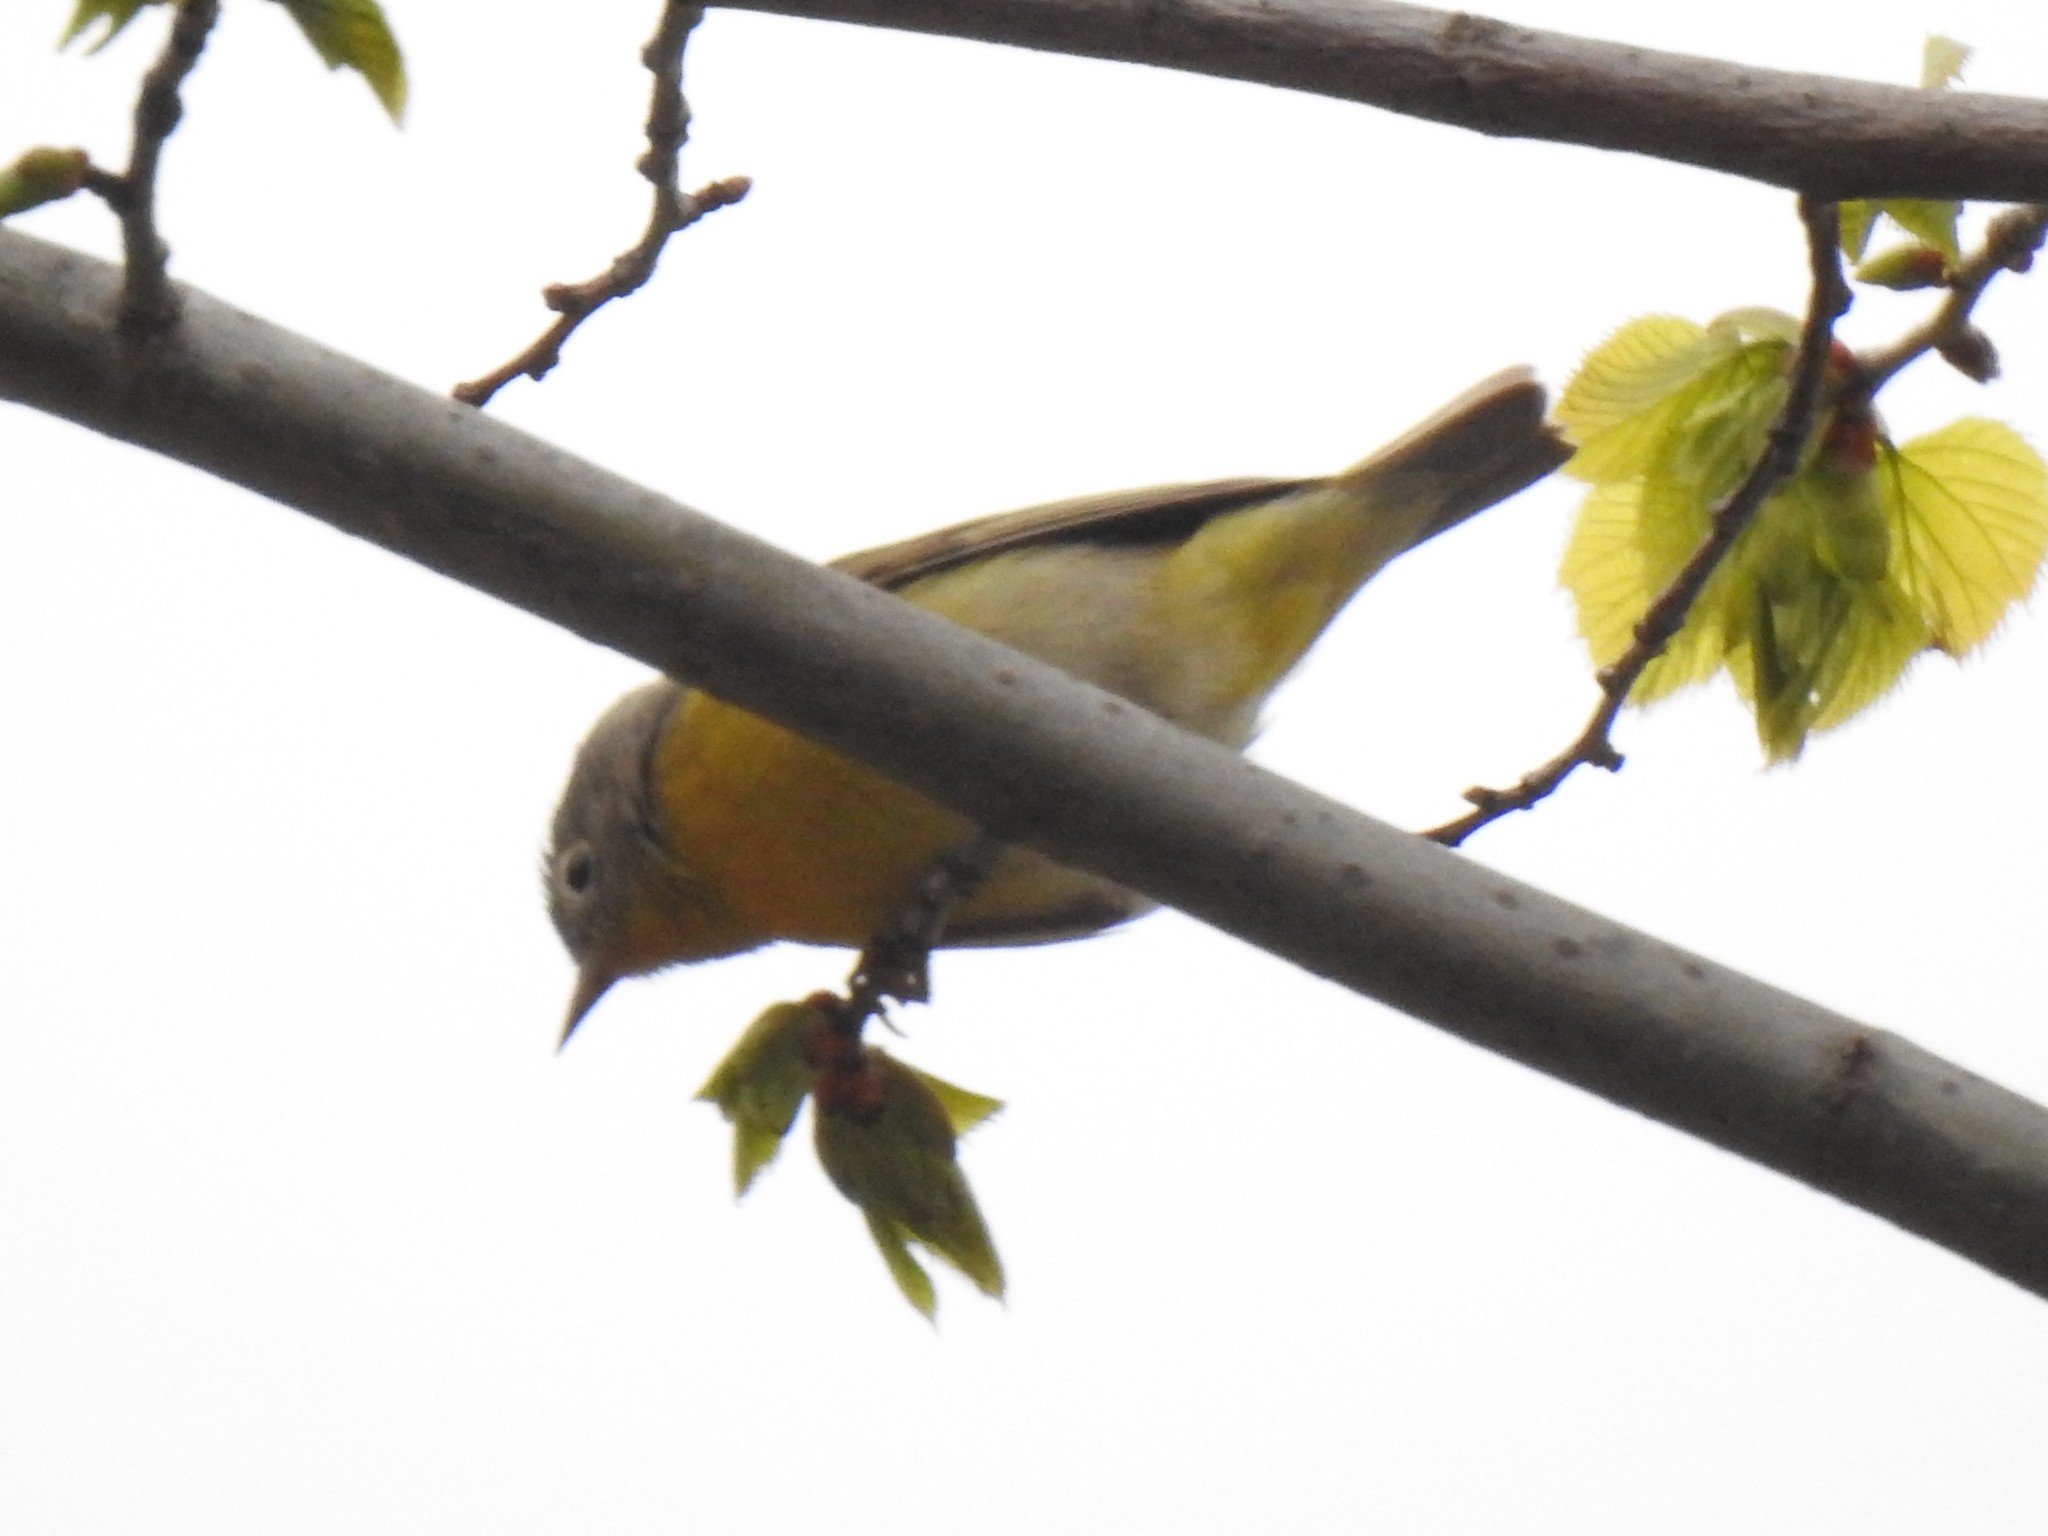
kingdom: Animalia
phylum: Chordata
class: Aves
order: Passeriformes
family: Parulidae
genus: Leiothlypis
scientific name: Leiothlypis ruficapilla
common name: Nashville warbler
